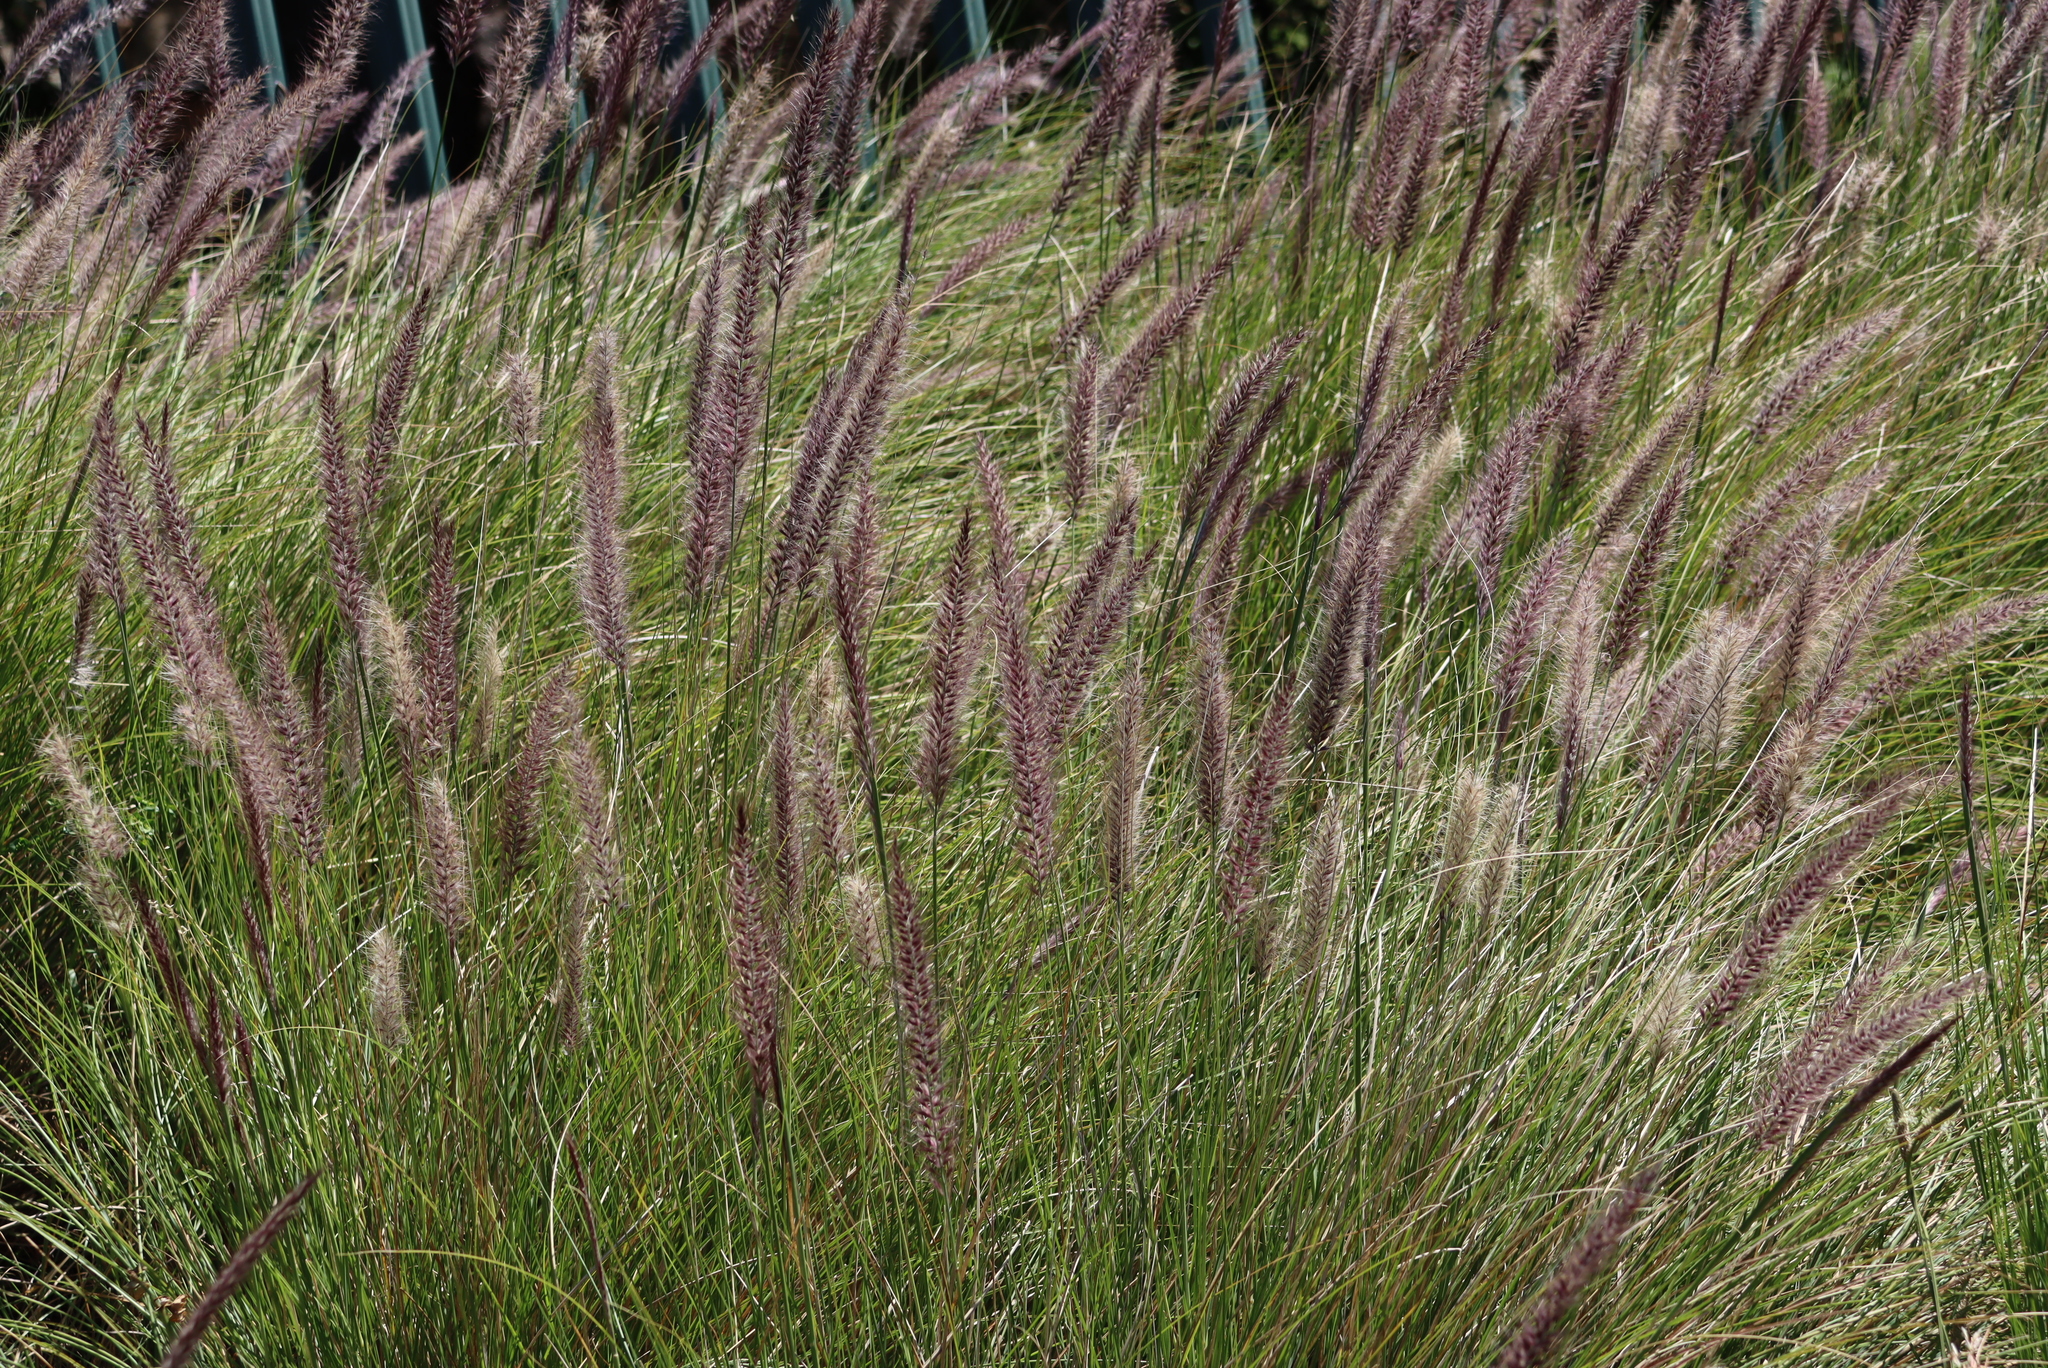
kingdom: Plantae
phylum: Tracheophyta
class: Liliopsida
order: Poales
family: Poaceae
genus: Cenchrus
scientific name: Cenchrus setaceus
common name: Crimson fountaingrass
